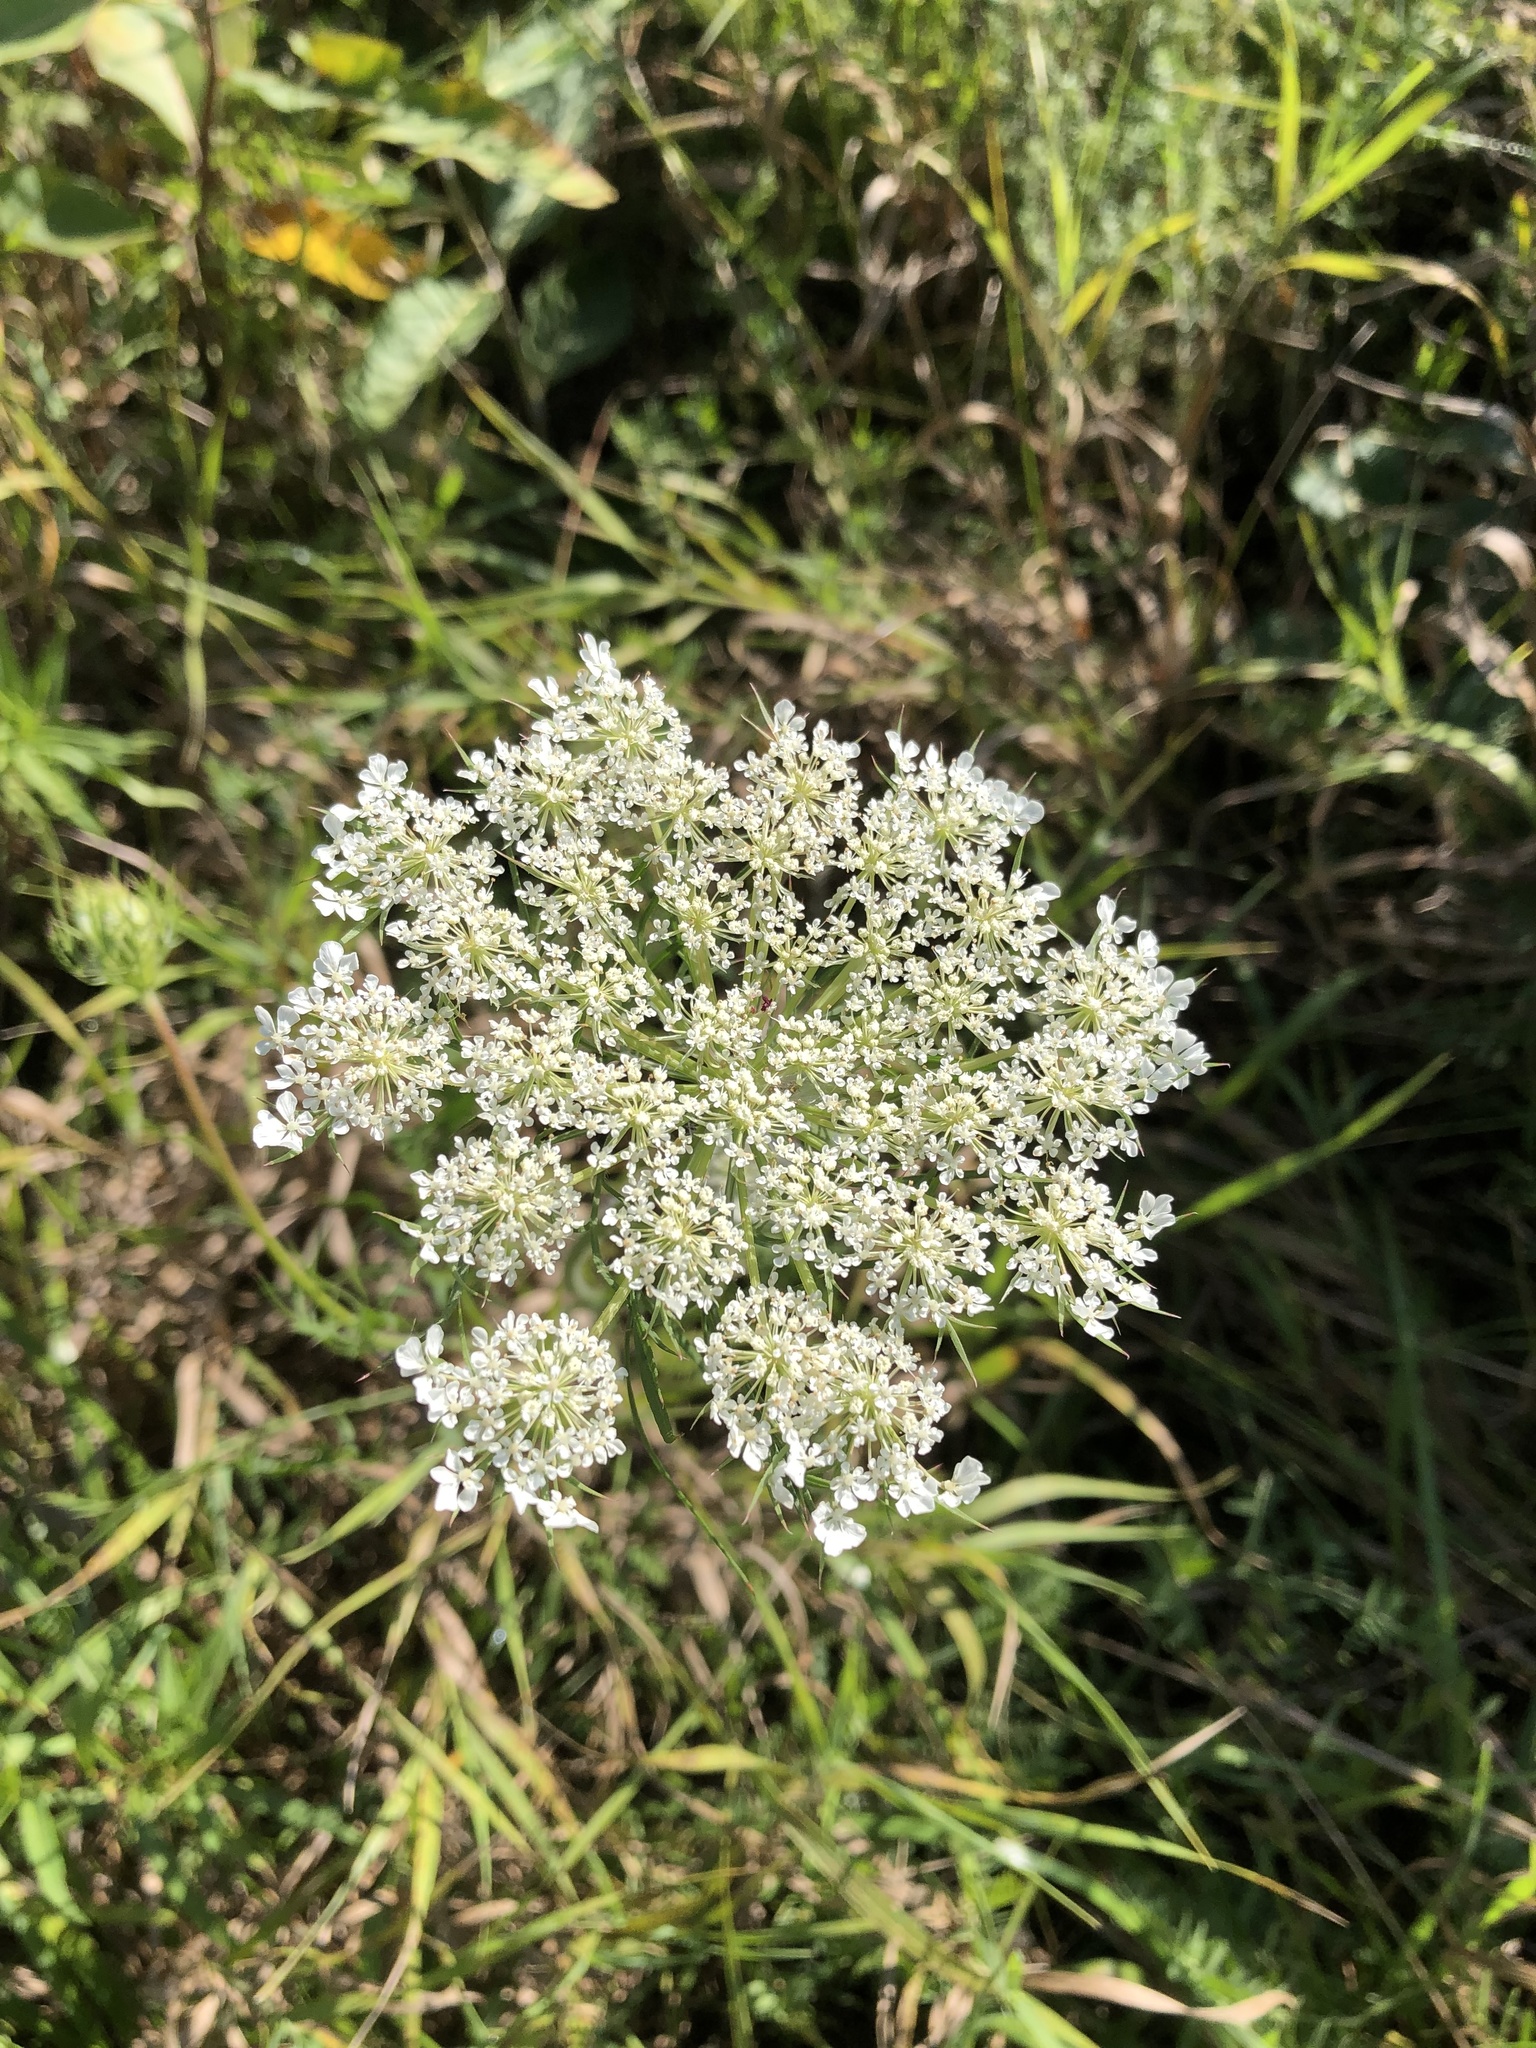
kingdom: Plantae
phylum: Tracheophyta
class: Magnoliopsida
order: Apiales
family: Apiaceae
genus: Daucus
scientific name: Daucus carota
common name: Wild carrot
